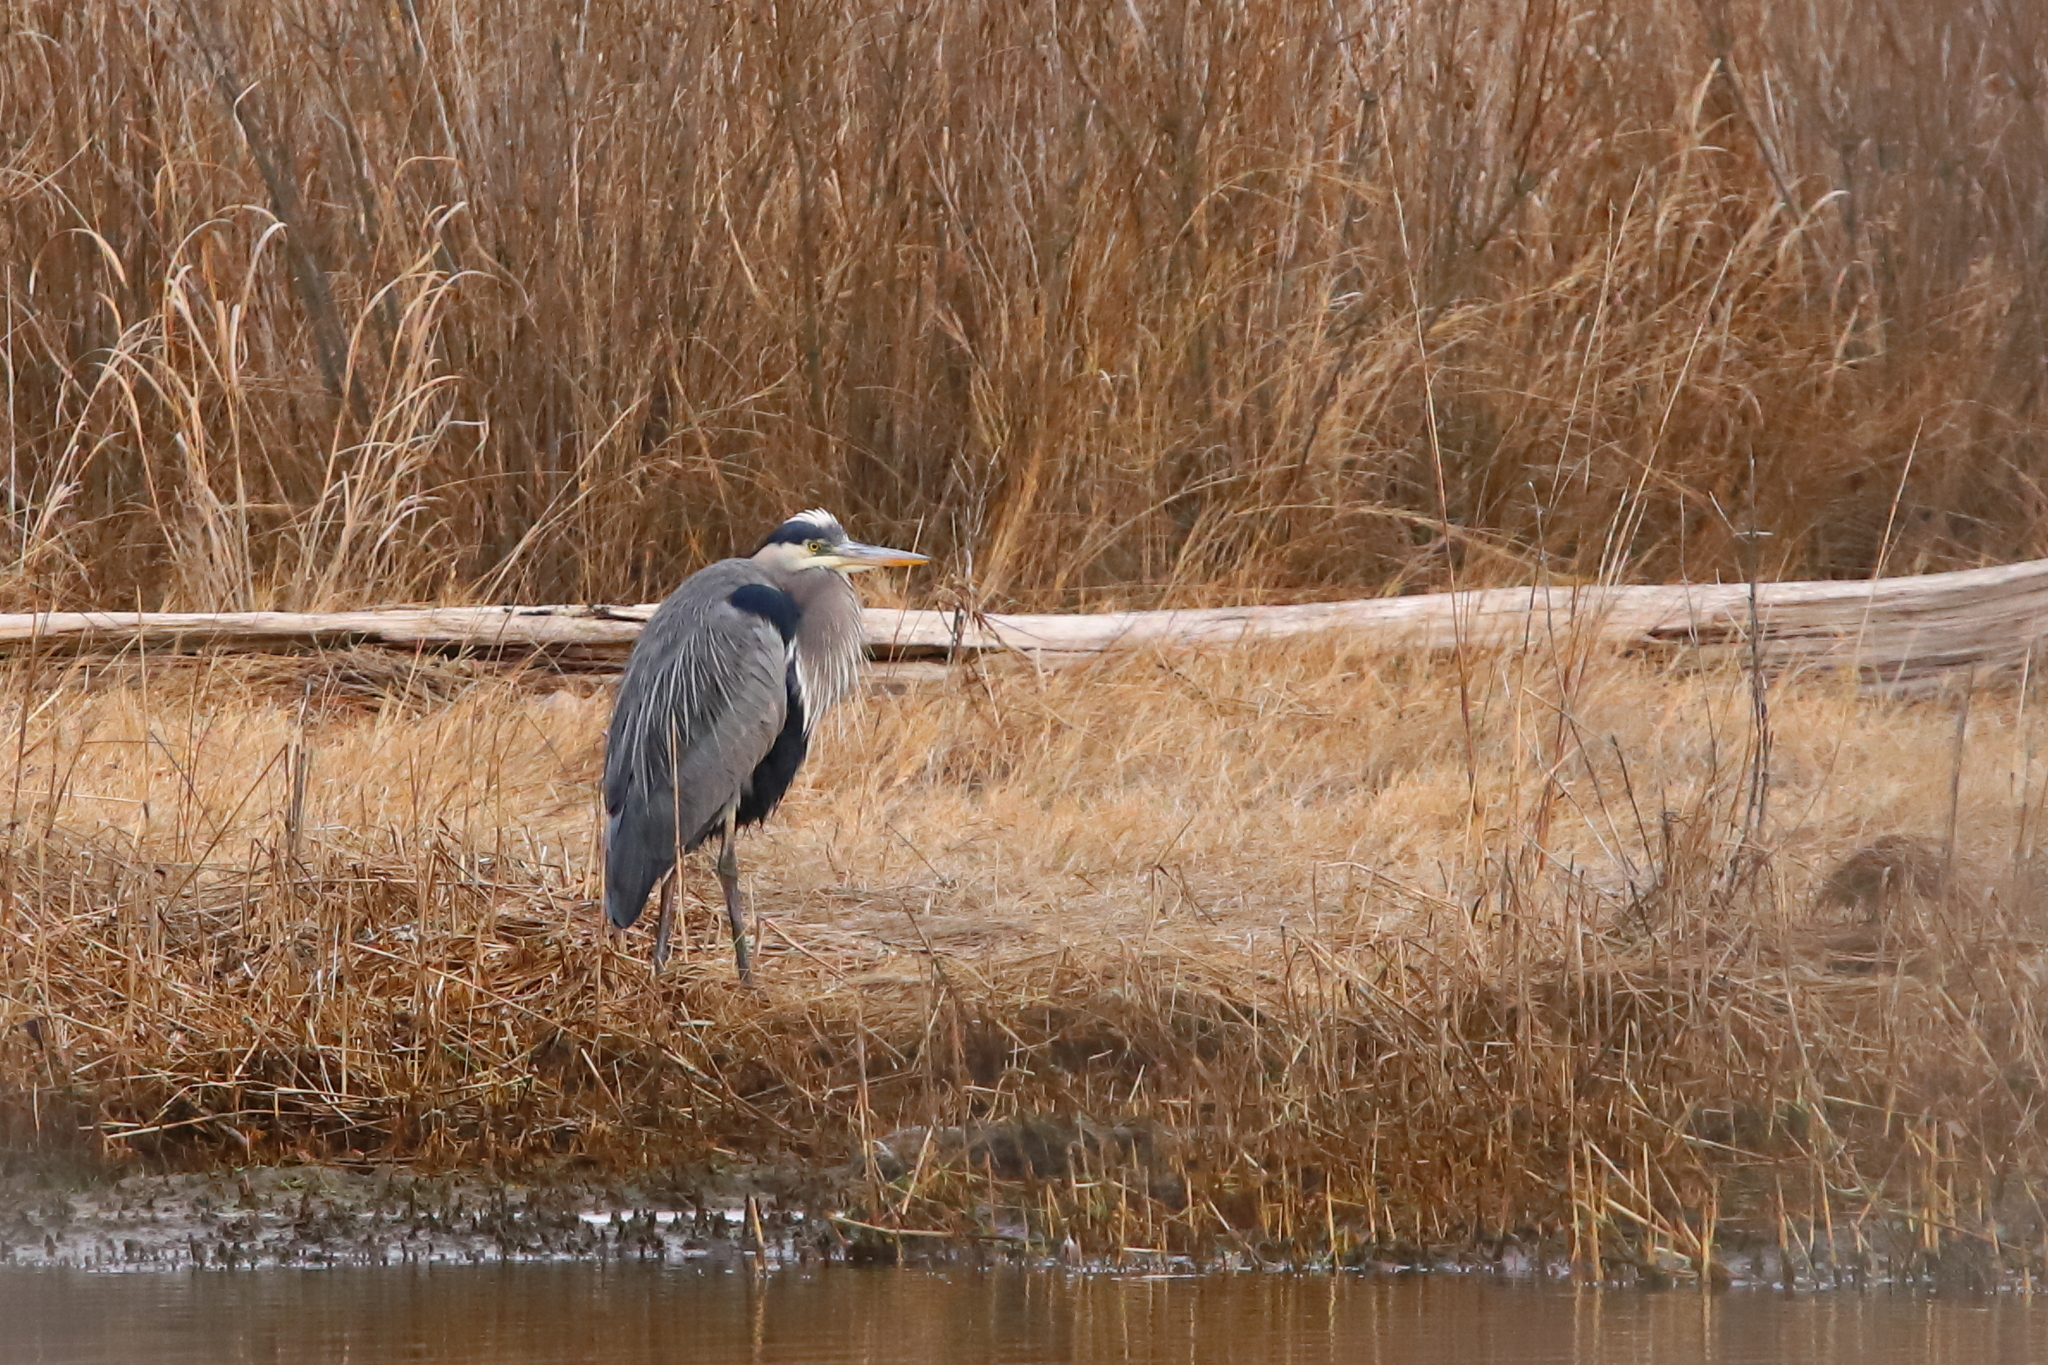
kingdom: Animalia
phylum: Chordata
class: Aves
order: Pelecaniformes
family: Ardeidae
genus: Ardea
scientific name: Ardea herodias
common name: Great blue heron
